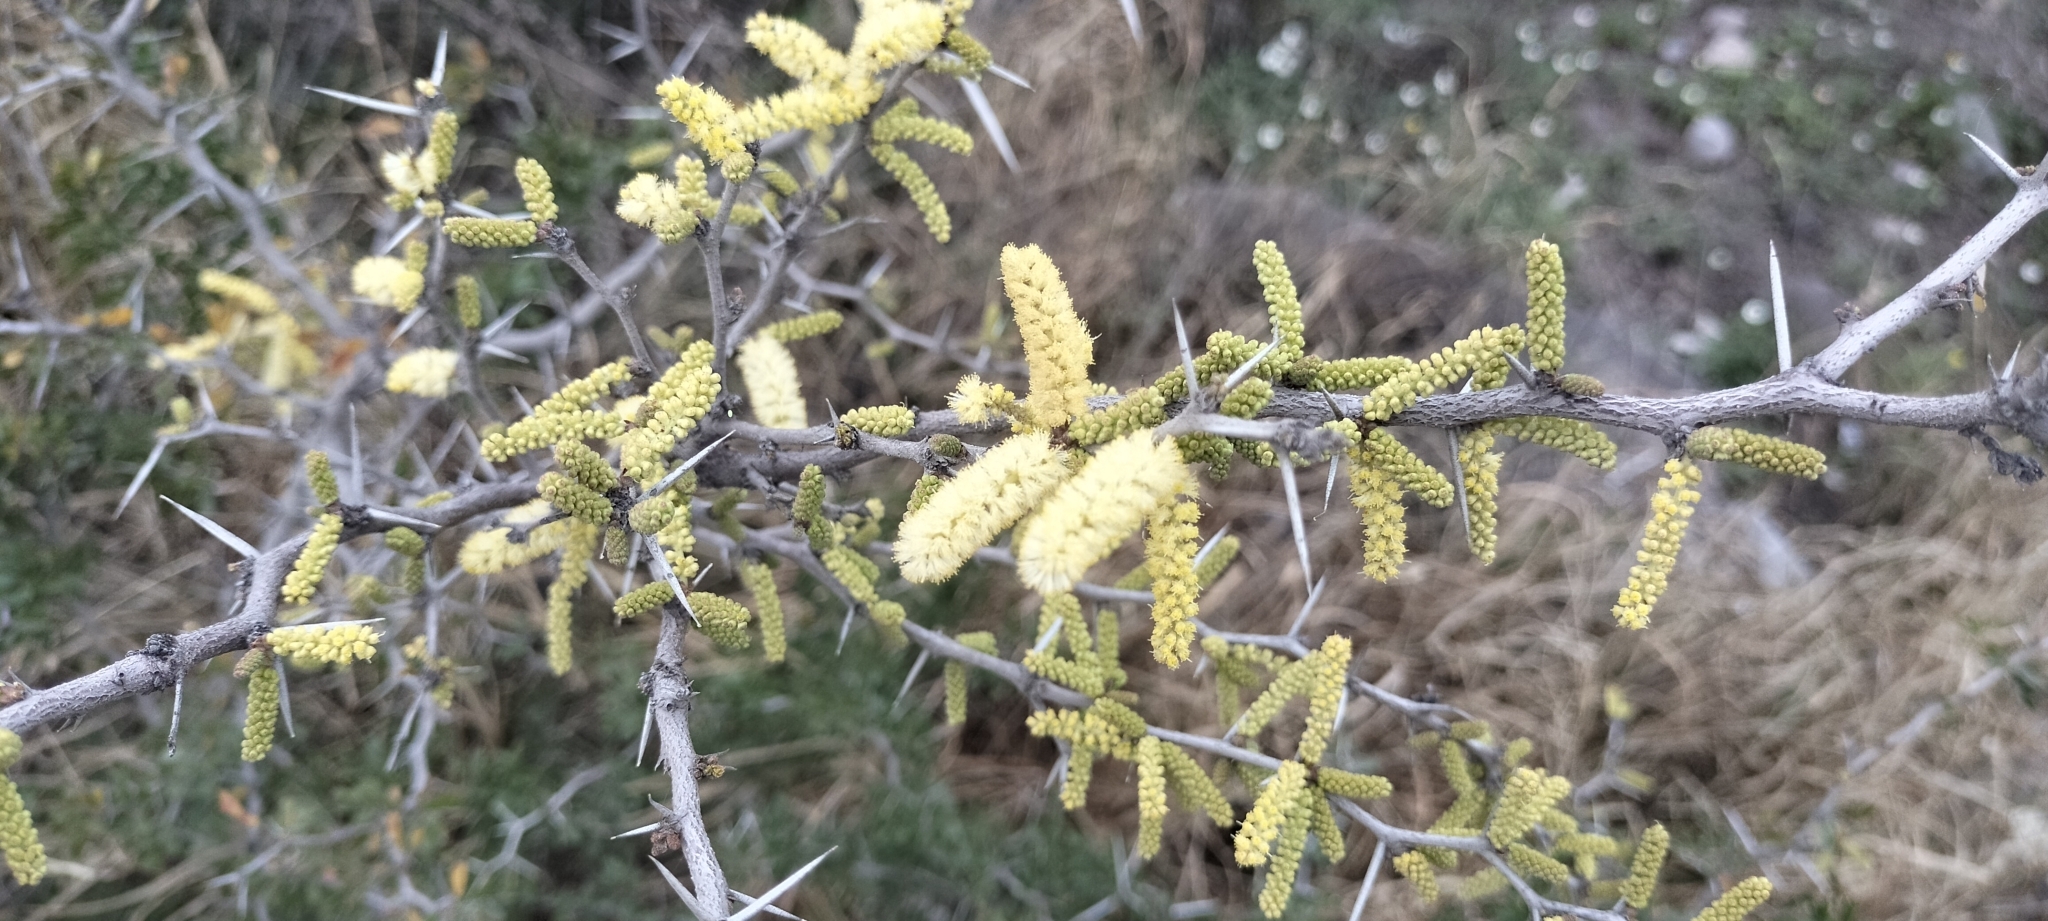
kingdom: Plantae
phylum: Tracheophyta
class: Magnoliopsida
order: Fabales
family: Fabaceae
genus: Vachellia
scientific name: Vachellia rigidula
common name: Blackbrush
